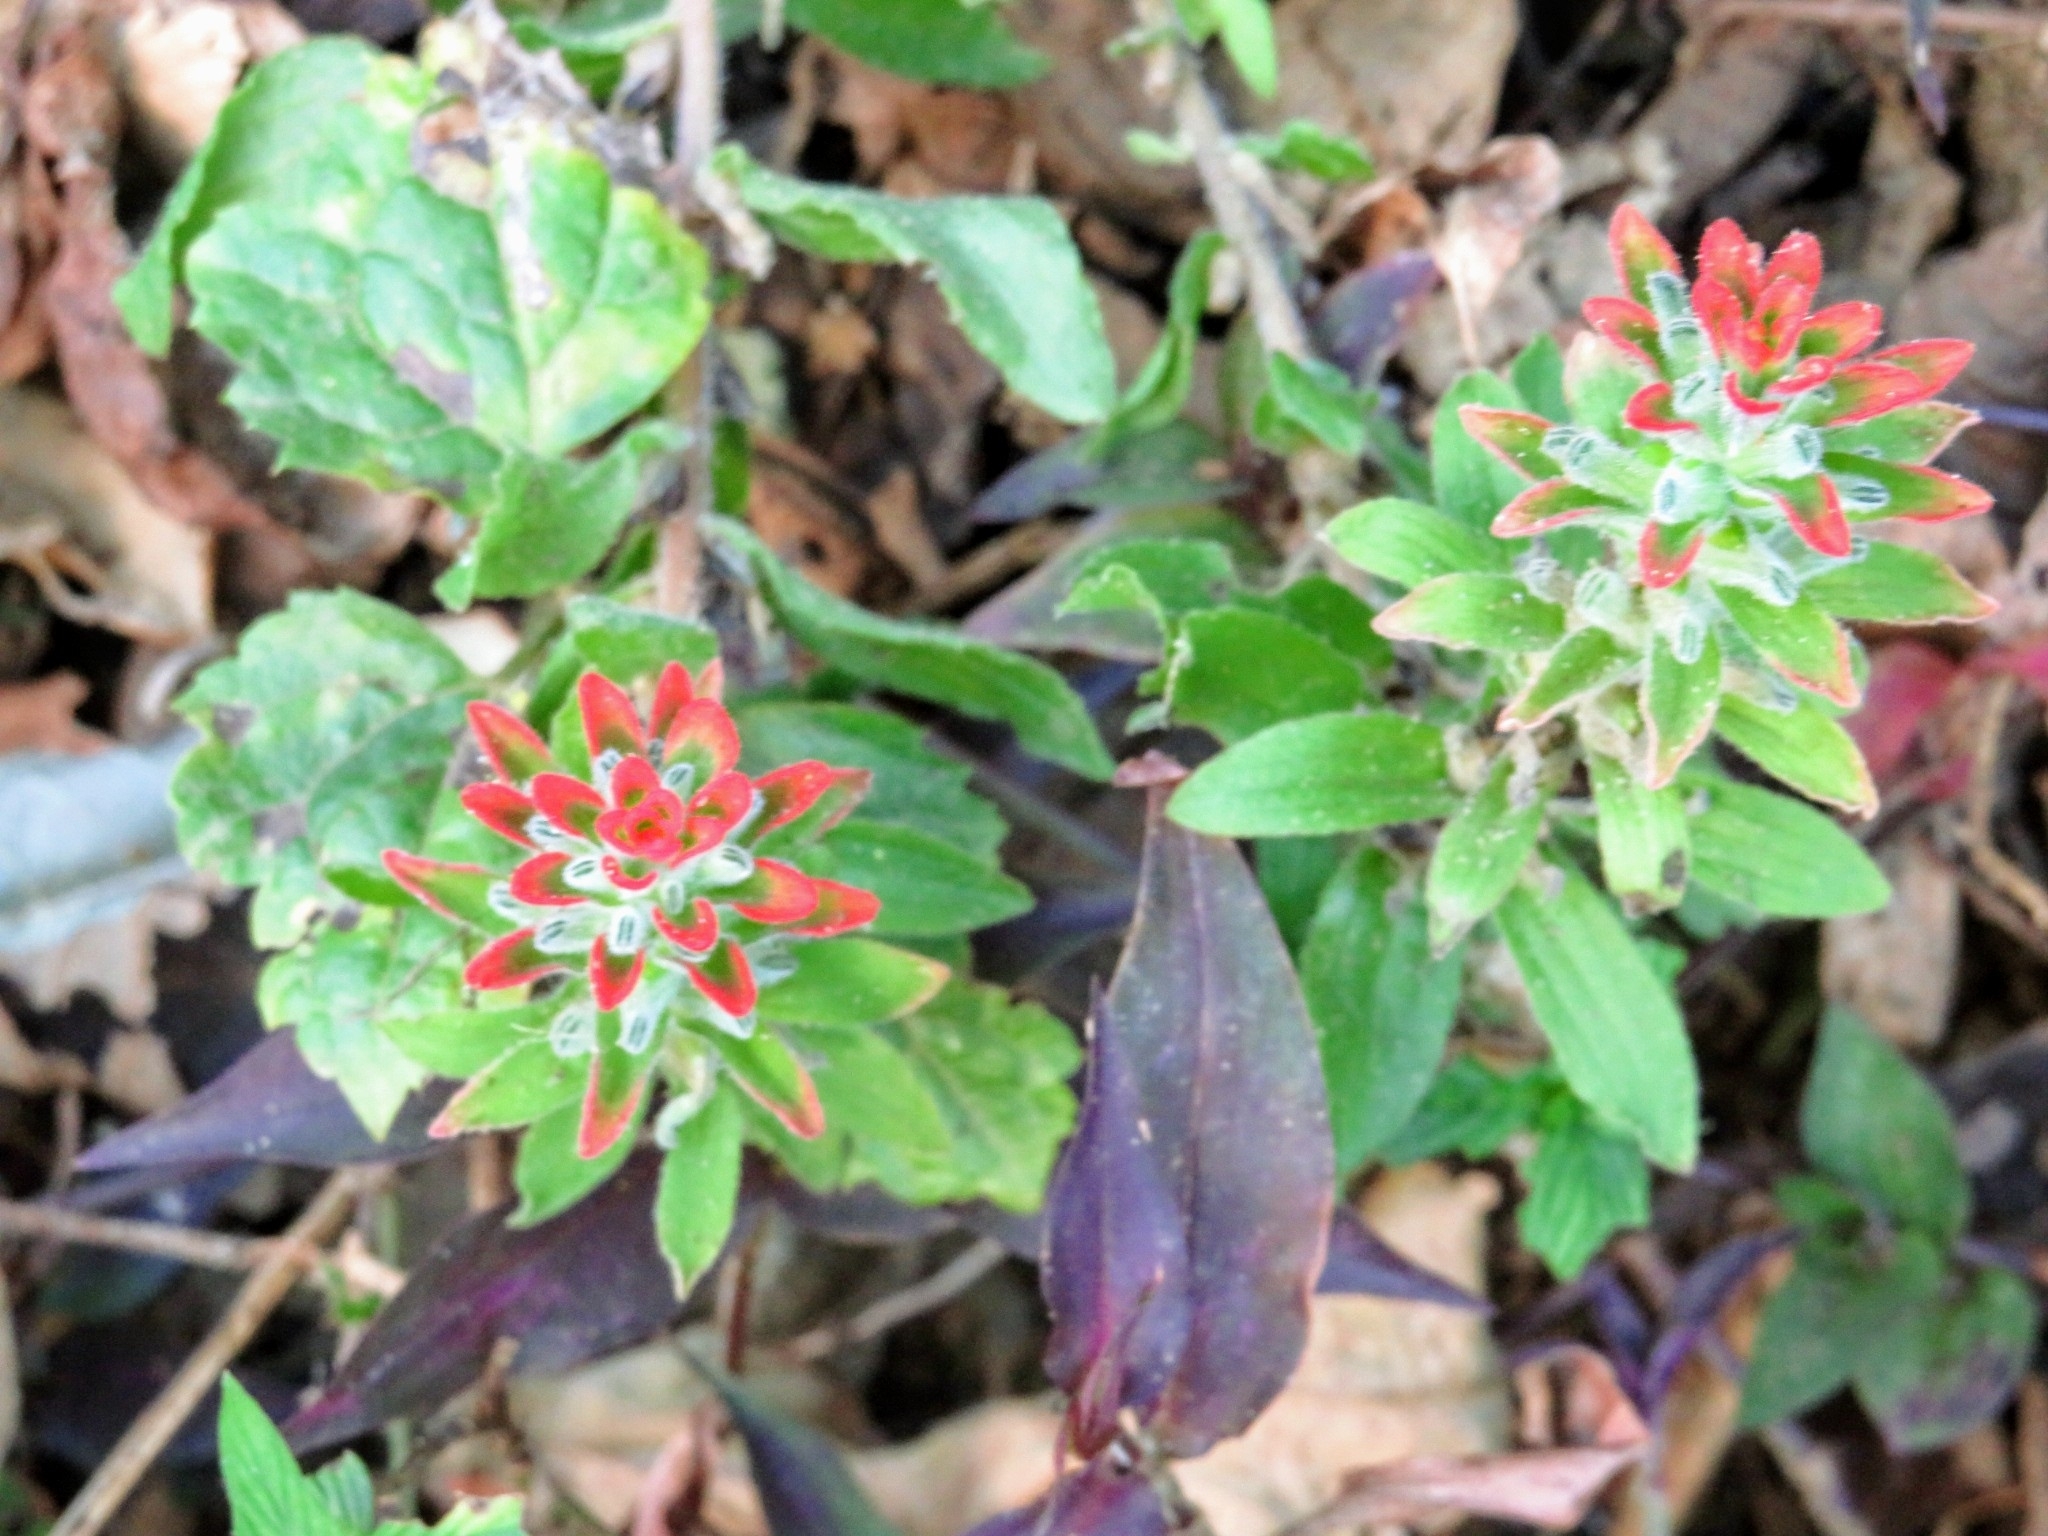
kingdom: Plantae
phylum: Tracheophyta
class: Magnoliopsida
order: Lamiales
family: Orobanchaceae
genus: Castilleja
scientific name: Castilleja arvensis
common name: Indian paintbrush
